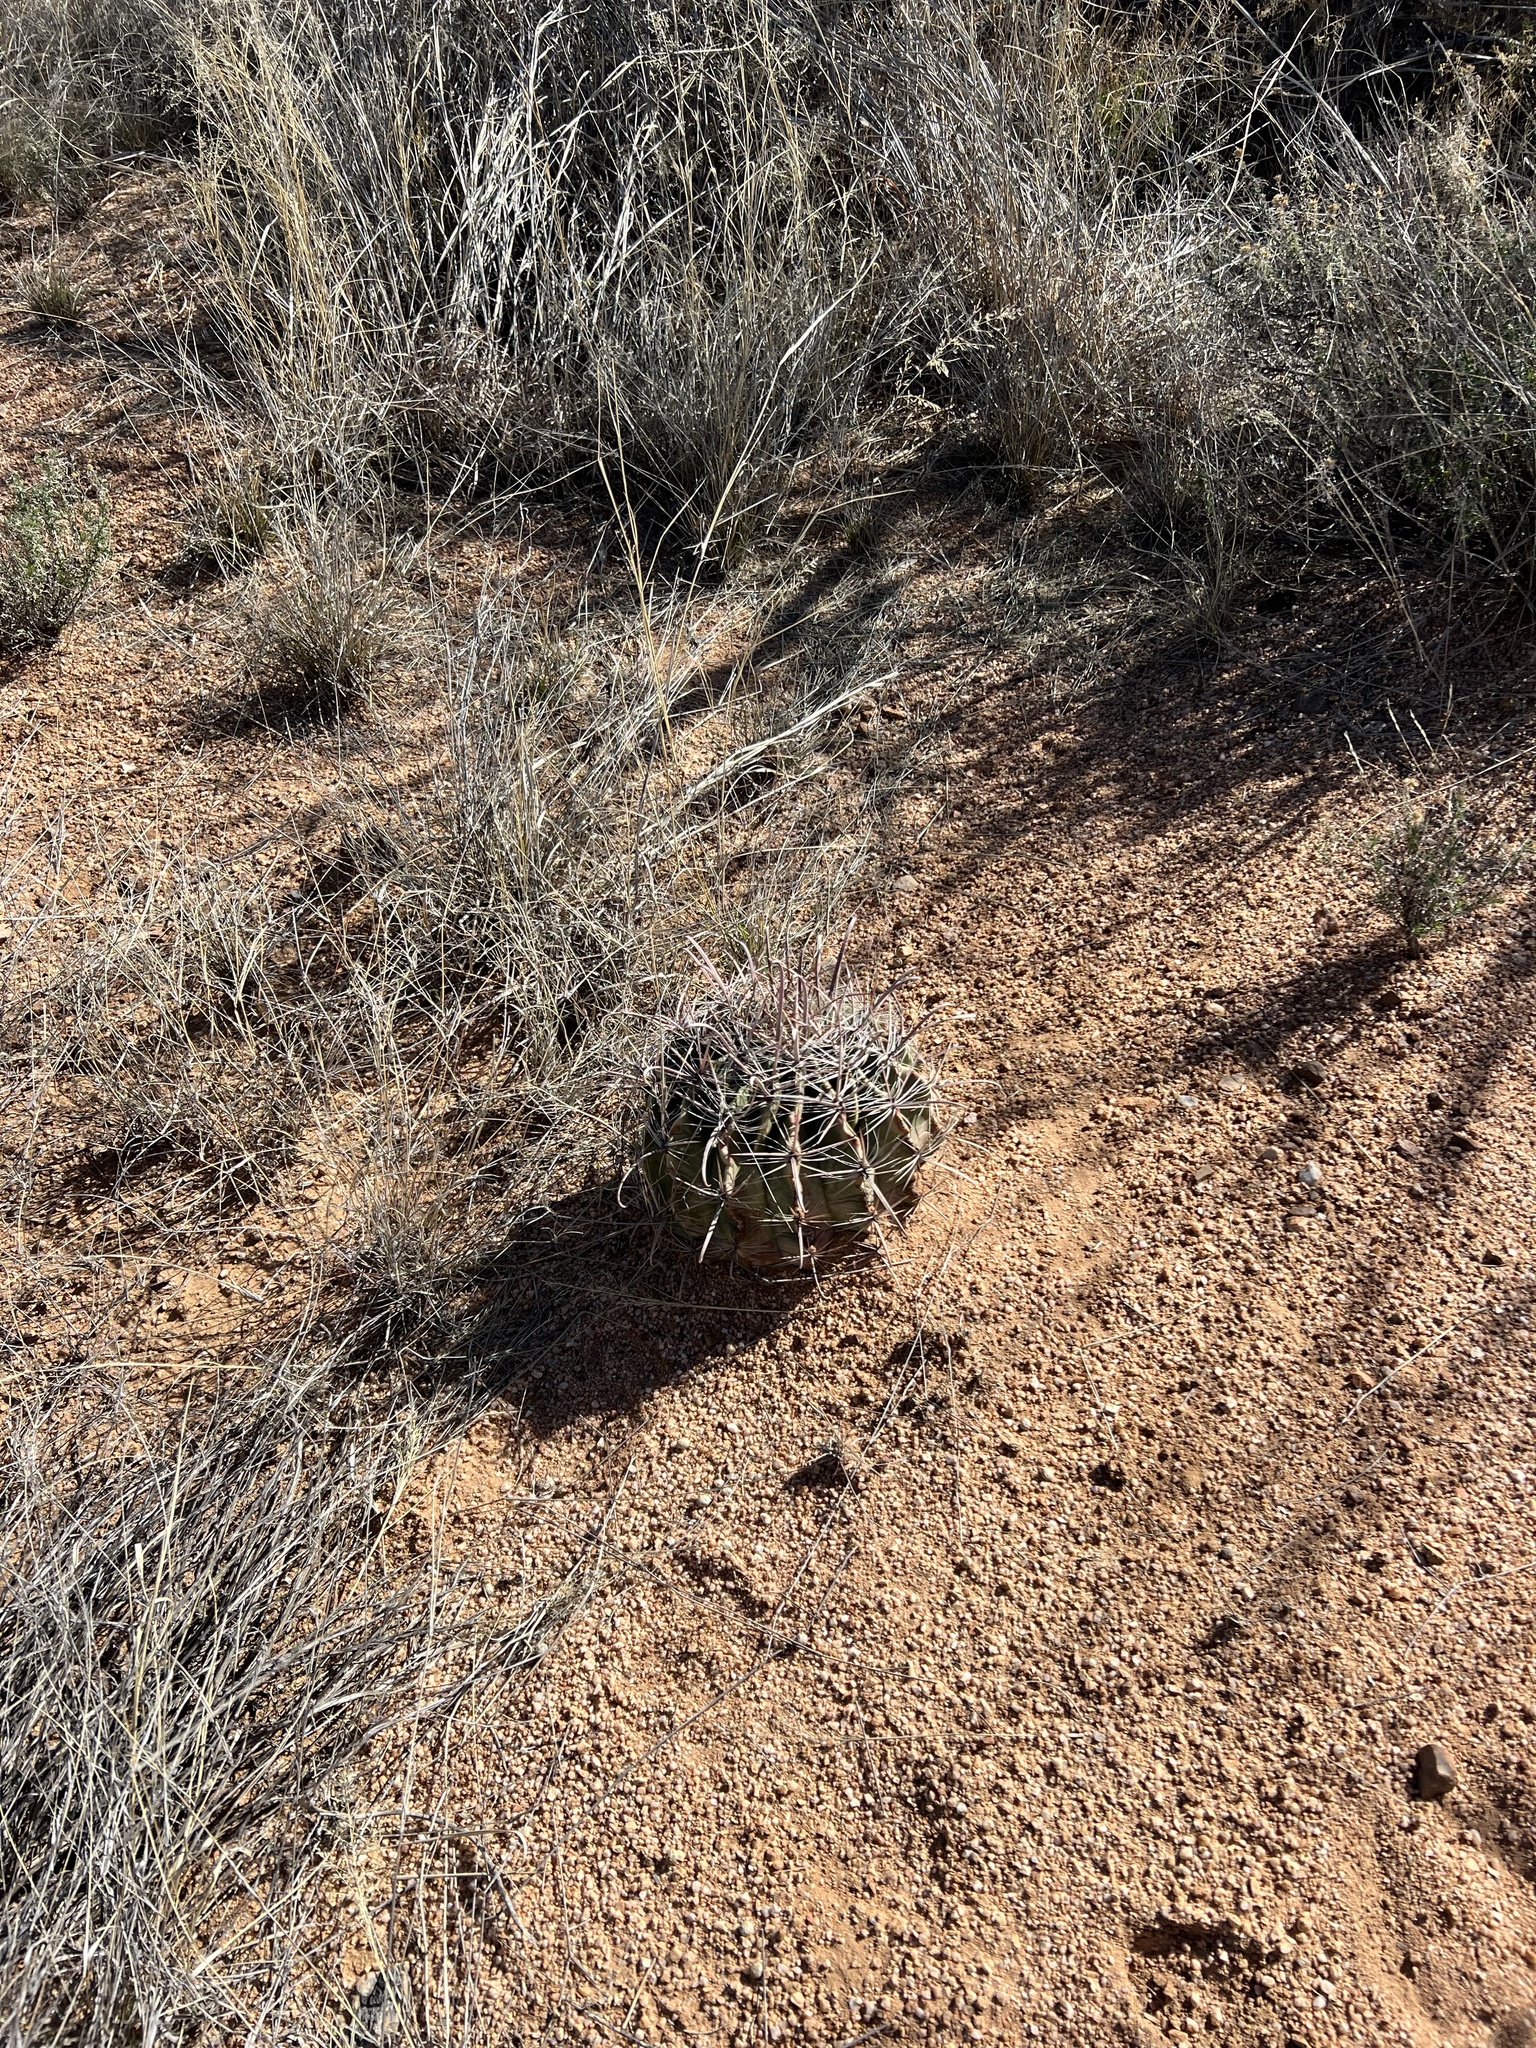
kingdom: Plantae
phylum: Tracheophyta
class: Magnoliopsida
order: Caryophyllales
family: Cactaceae
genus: Ferocactus
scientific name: Ferocactus wislizeni
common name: Candy barrel cactus
